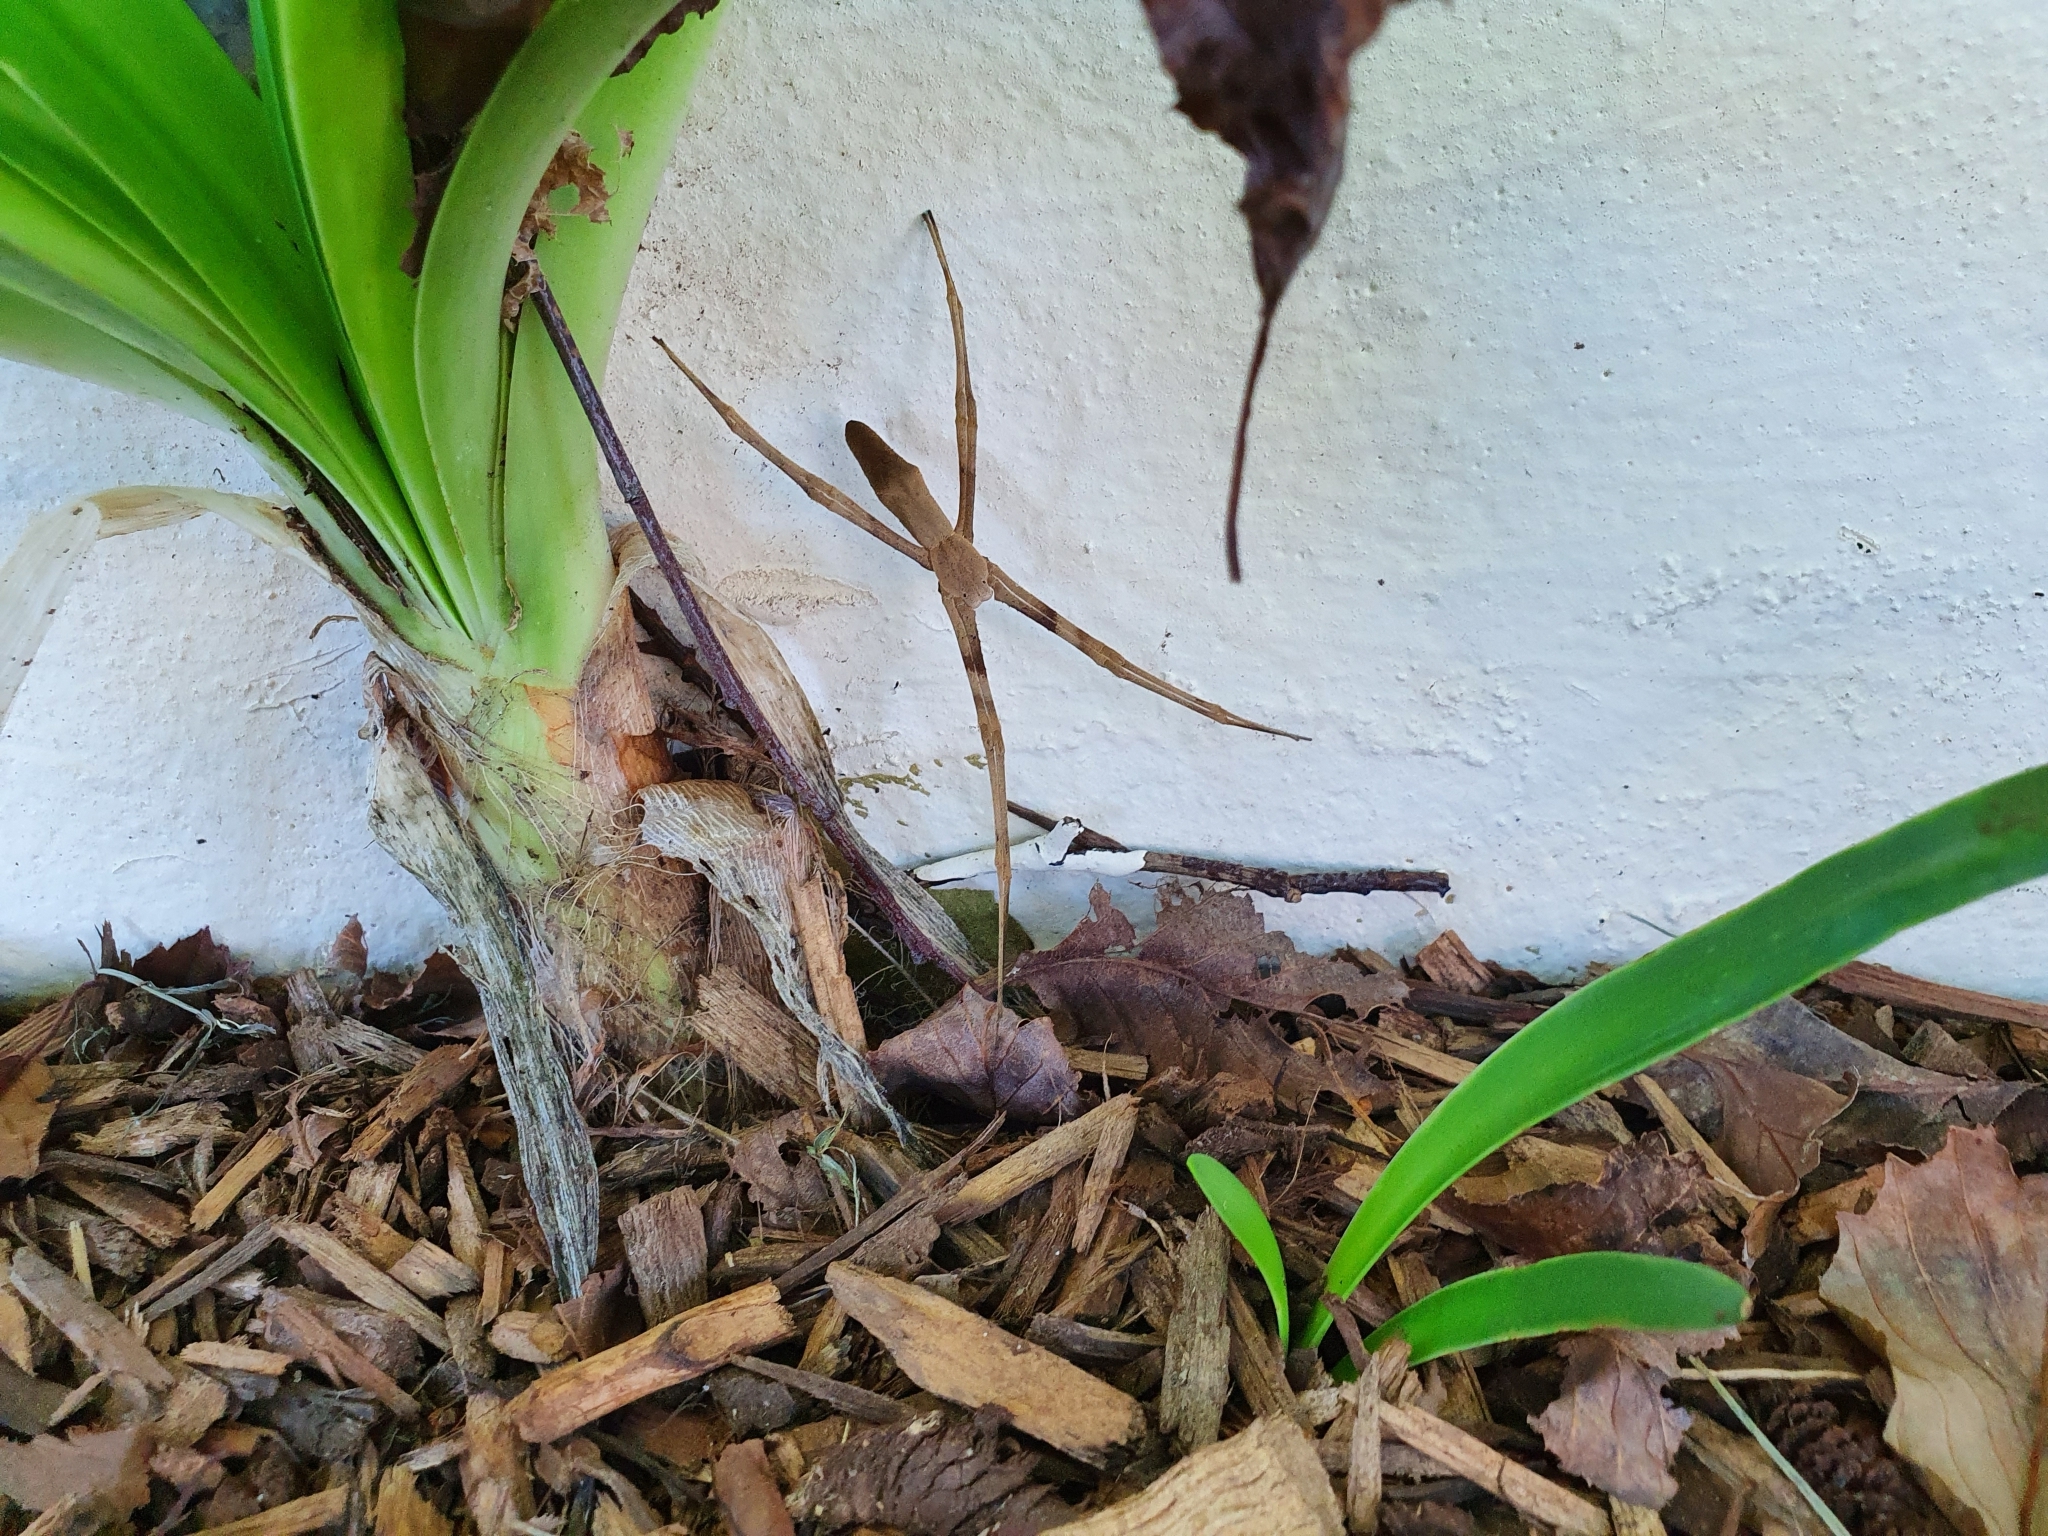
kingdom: Animalia
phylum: Arthropoda
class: Arachnida
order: Araneae
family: Deinopidae
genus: Deinopis
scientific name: Deinopis subrufa
